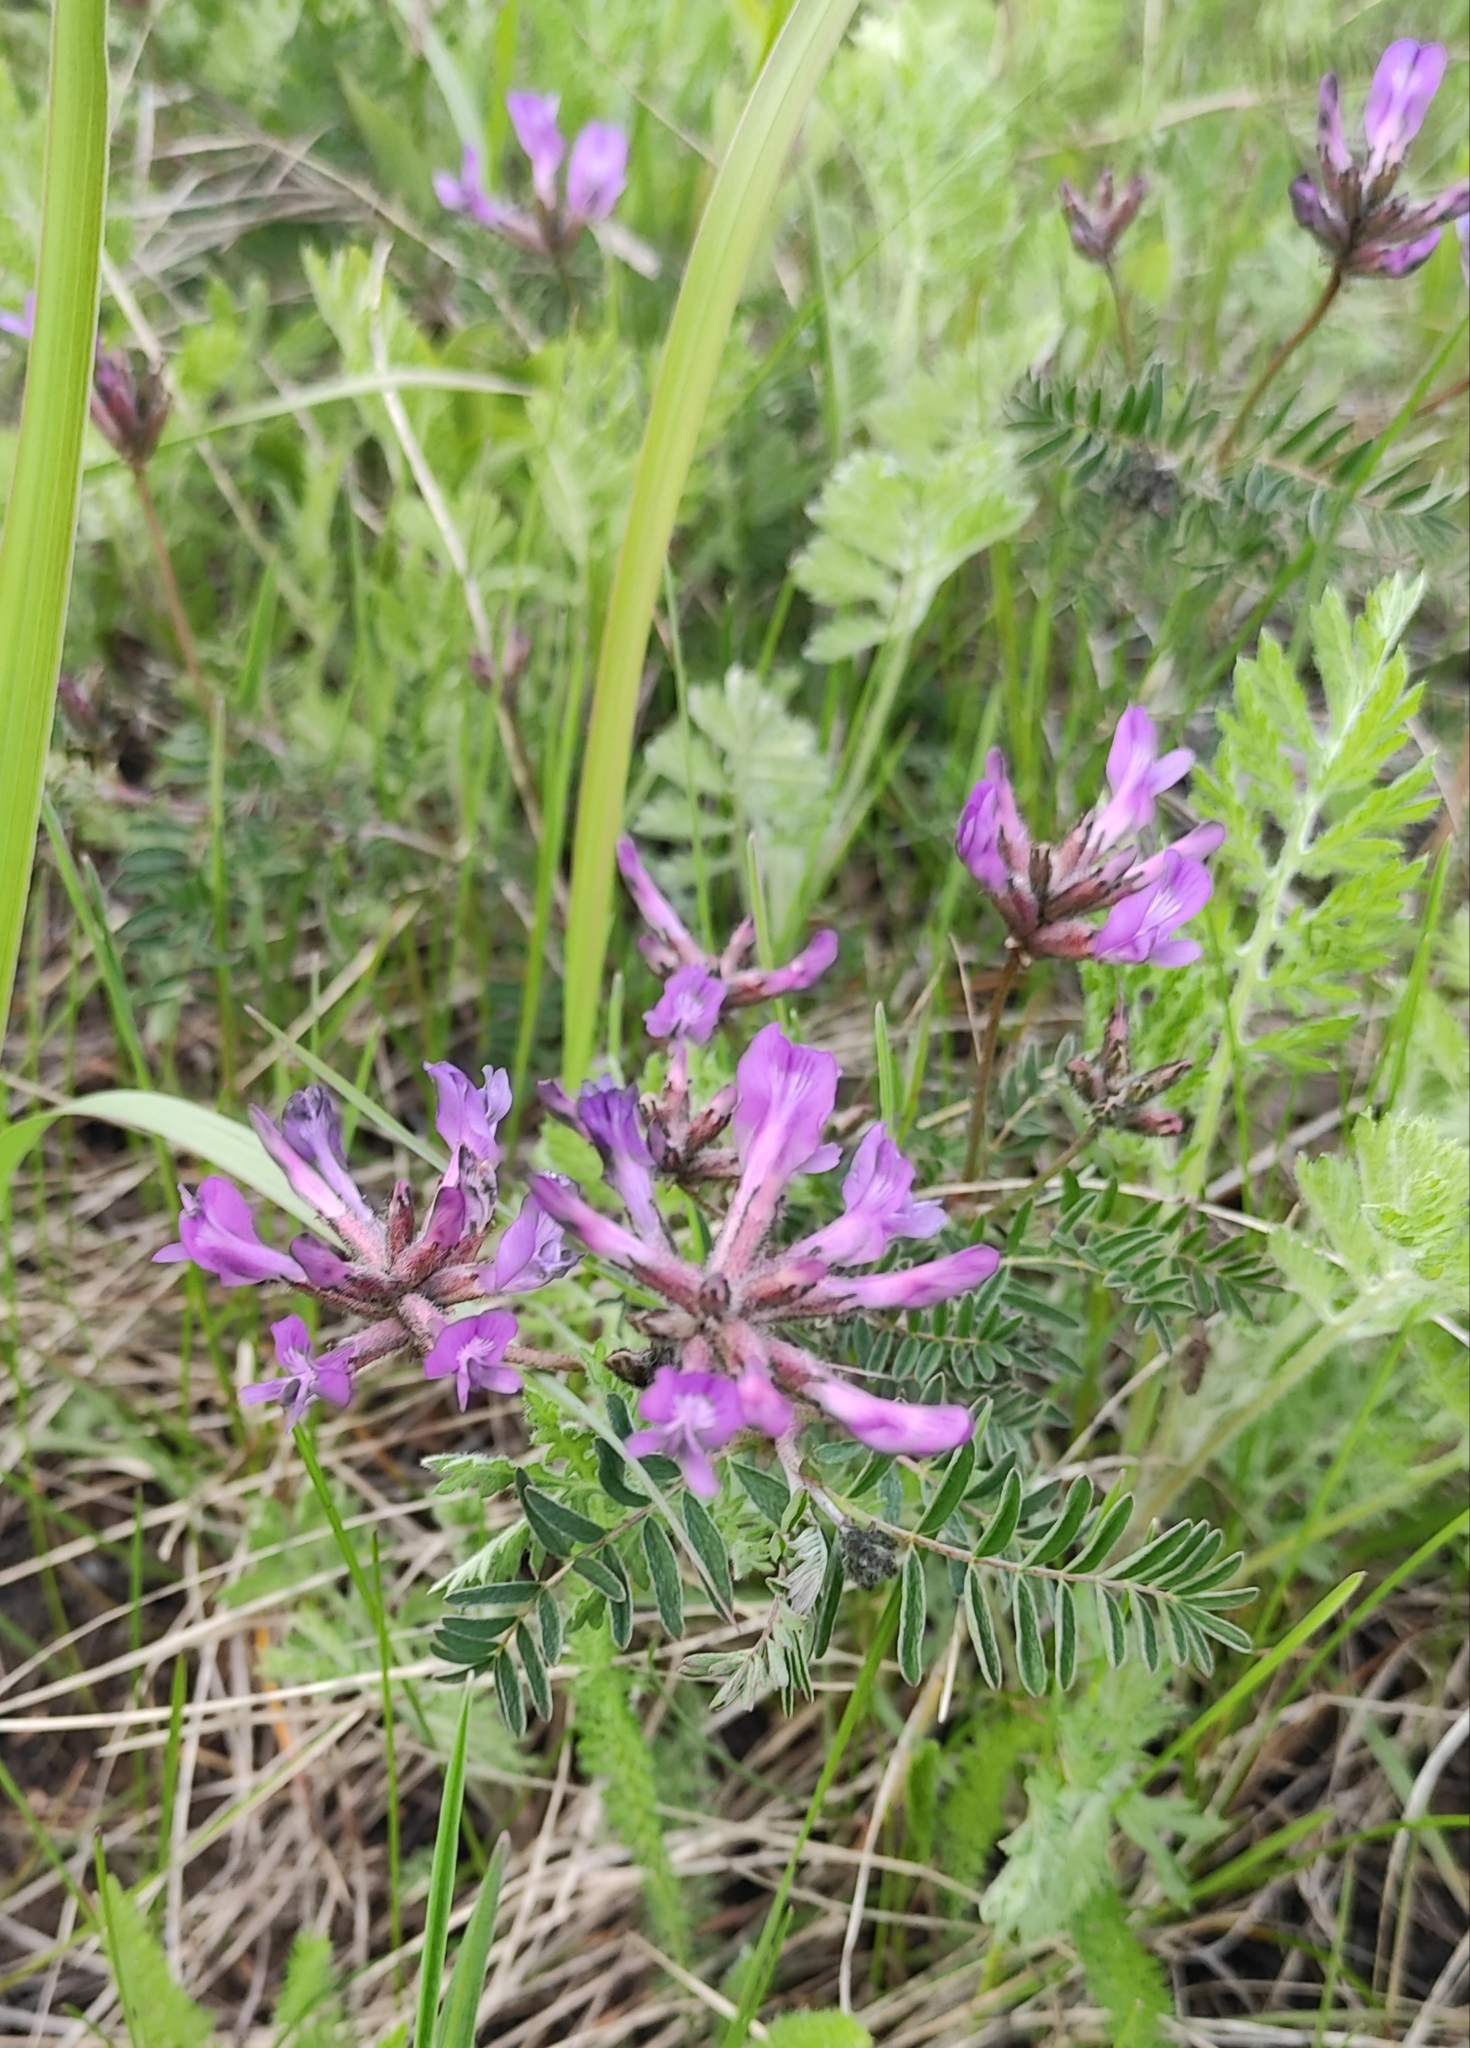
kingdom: Plantae
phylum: Tracheophyta
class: Magnoliopsida
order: Fabales
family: Fabaceae
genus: Astragalus
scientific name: Astragalus syriacus
